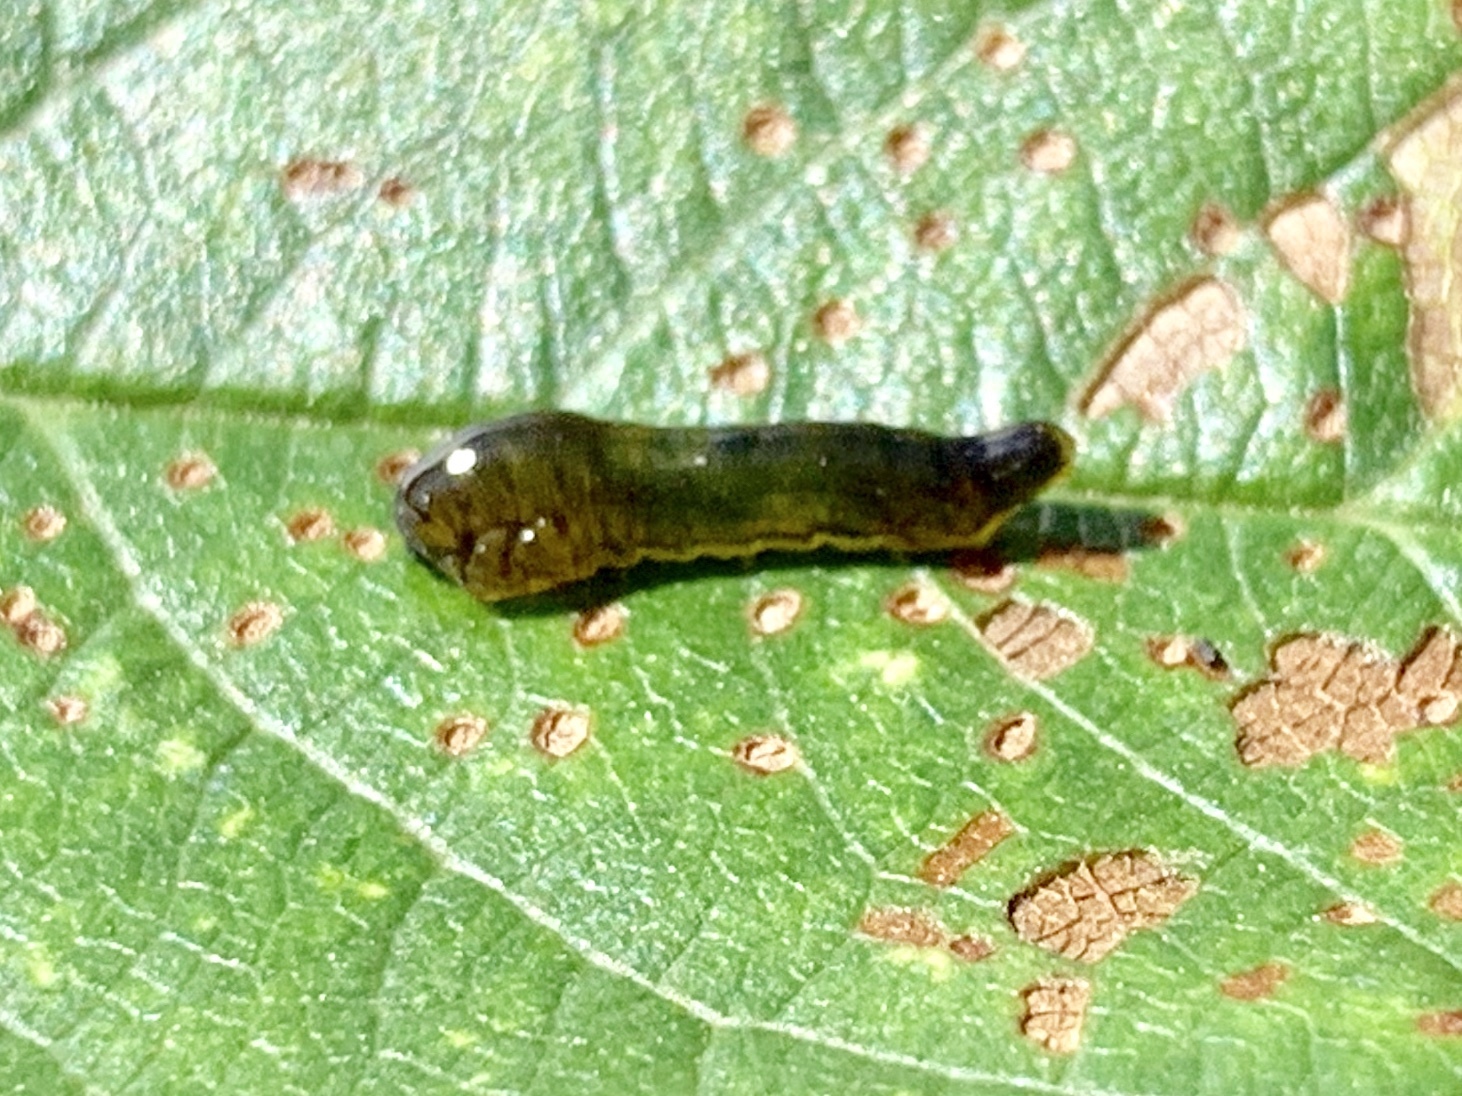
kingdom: Animalia
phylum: Arthropoda
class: Insecta
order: Hymenoptera
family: Tenthredinidae
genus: Caliroa
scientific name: Caliroa cerasi
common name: Pear sawfly
